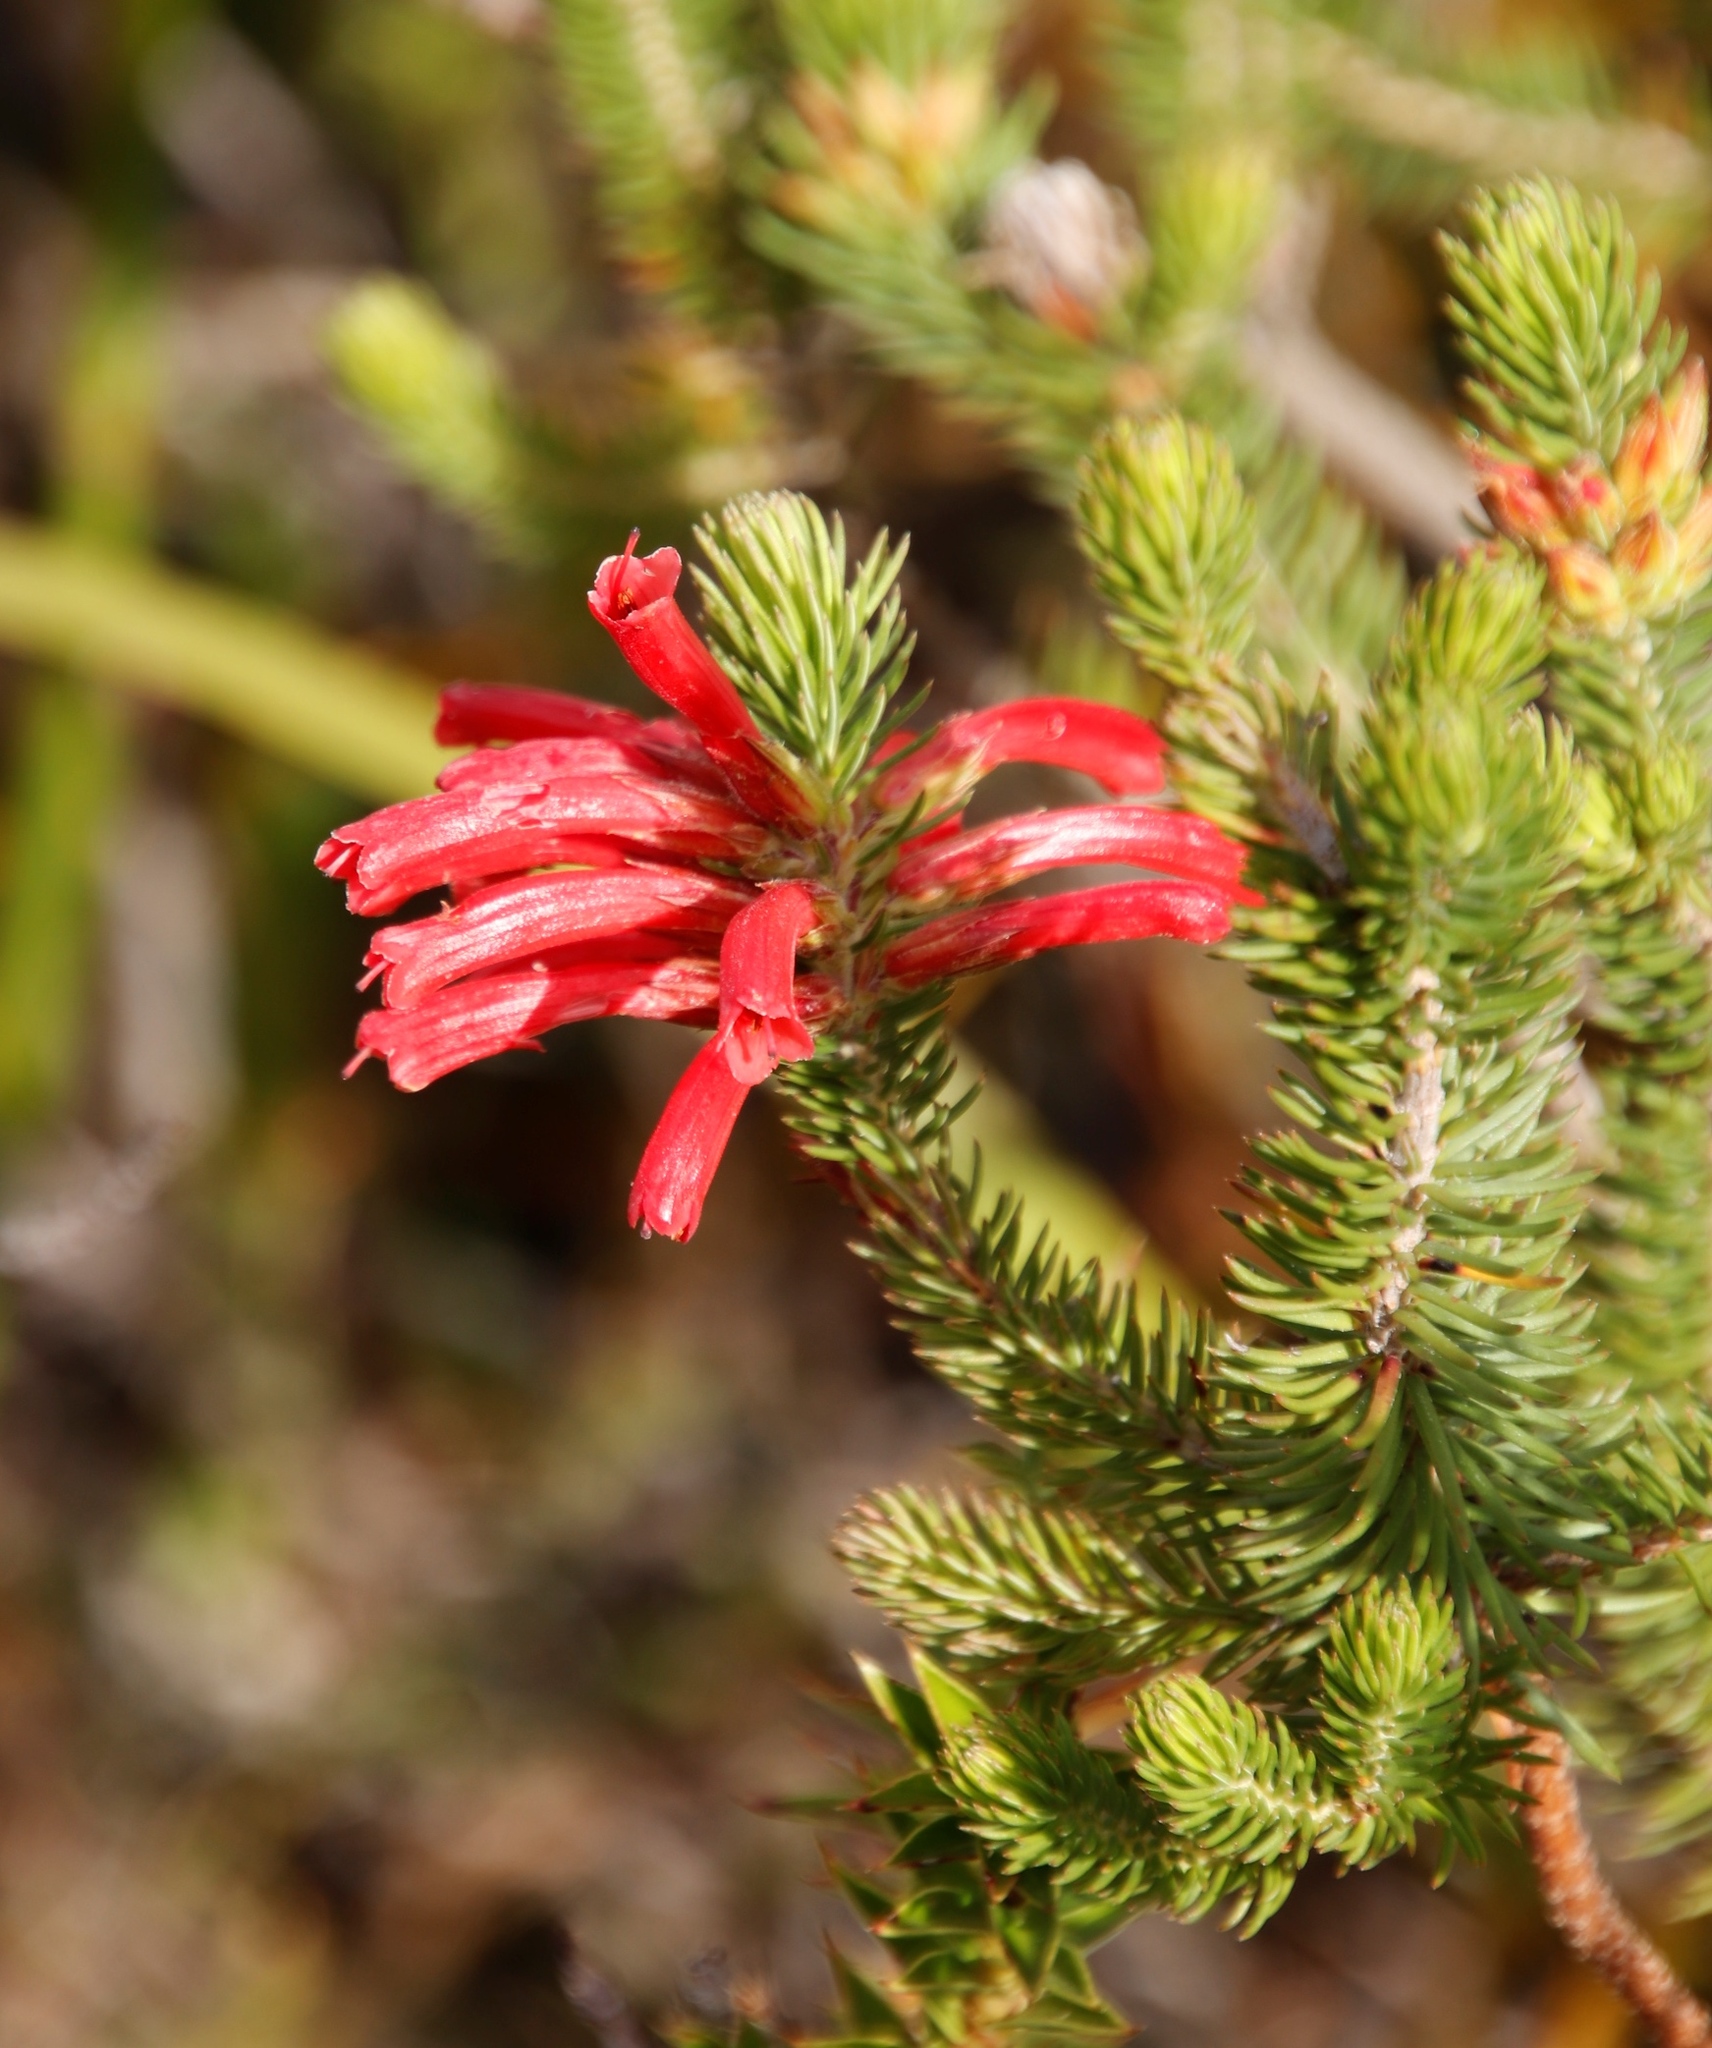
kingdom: Plantae
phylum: Tracheophyta
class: Magnoliopsida
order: Ericales
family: Ericaceae
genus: Erica
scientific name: Erica abietina
